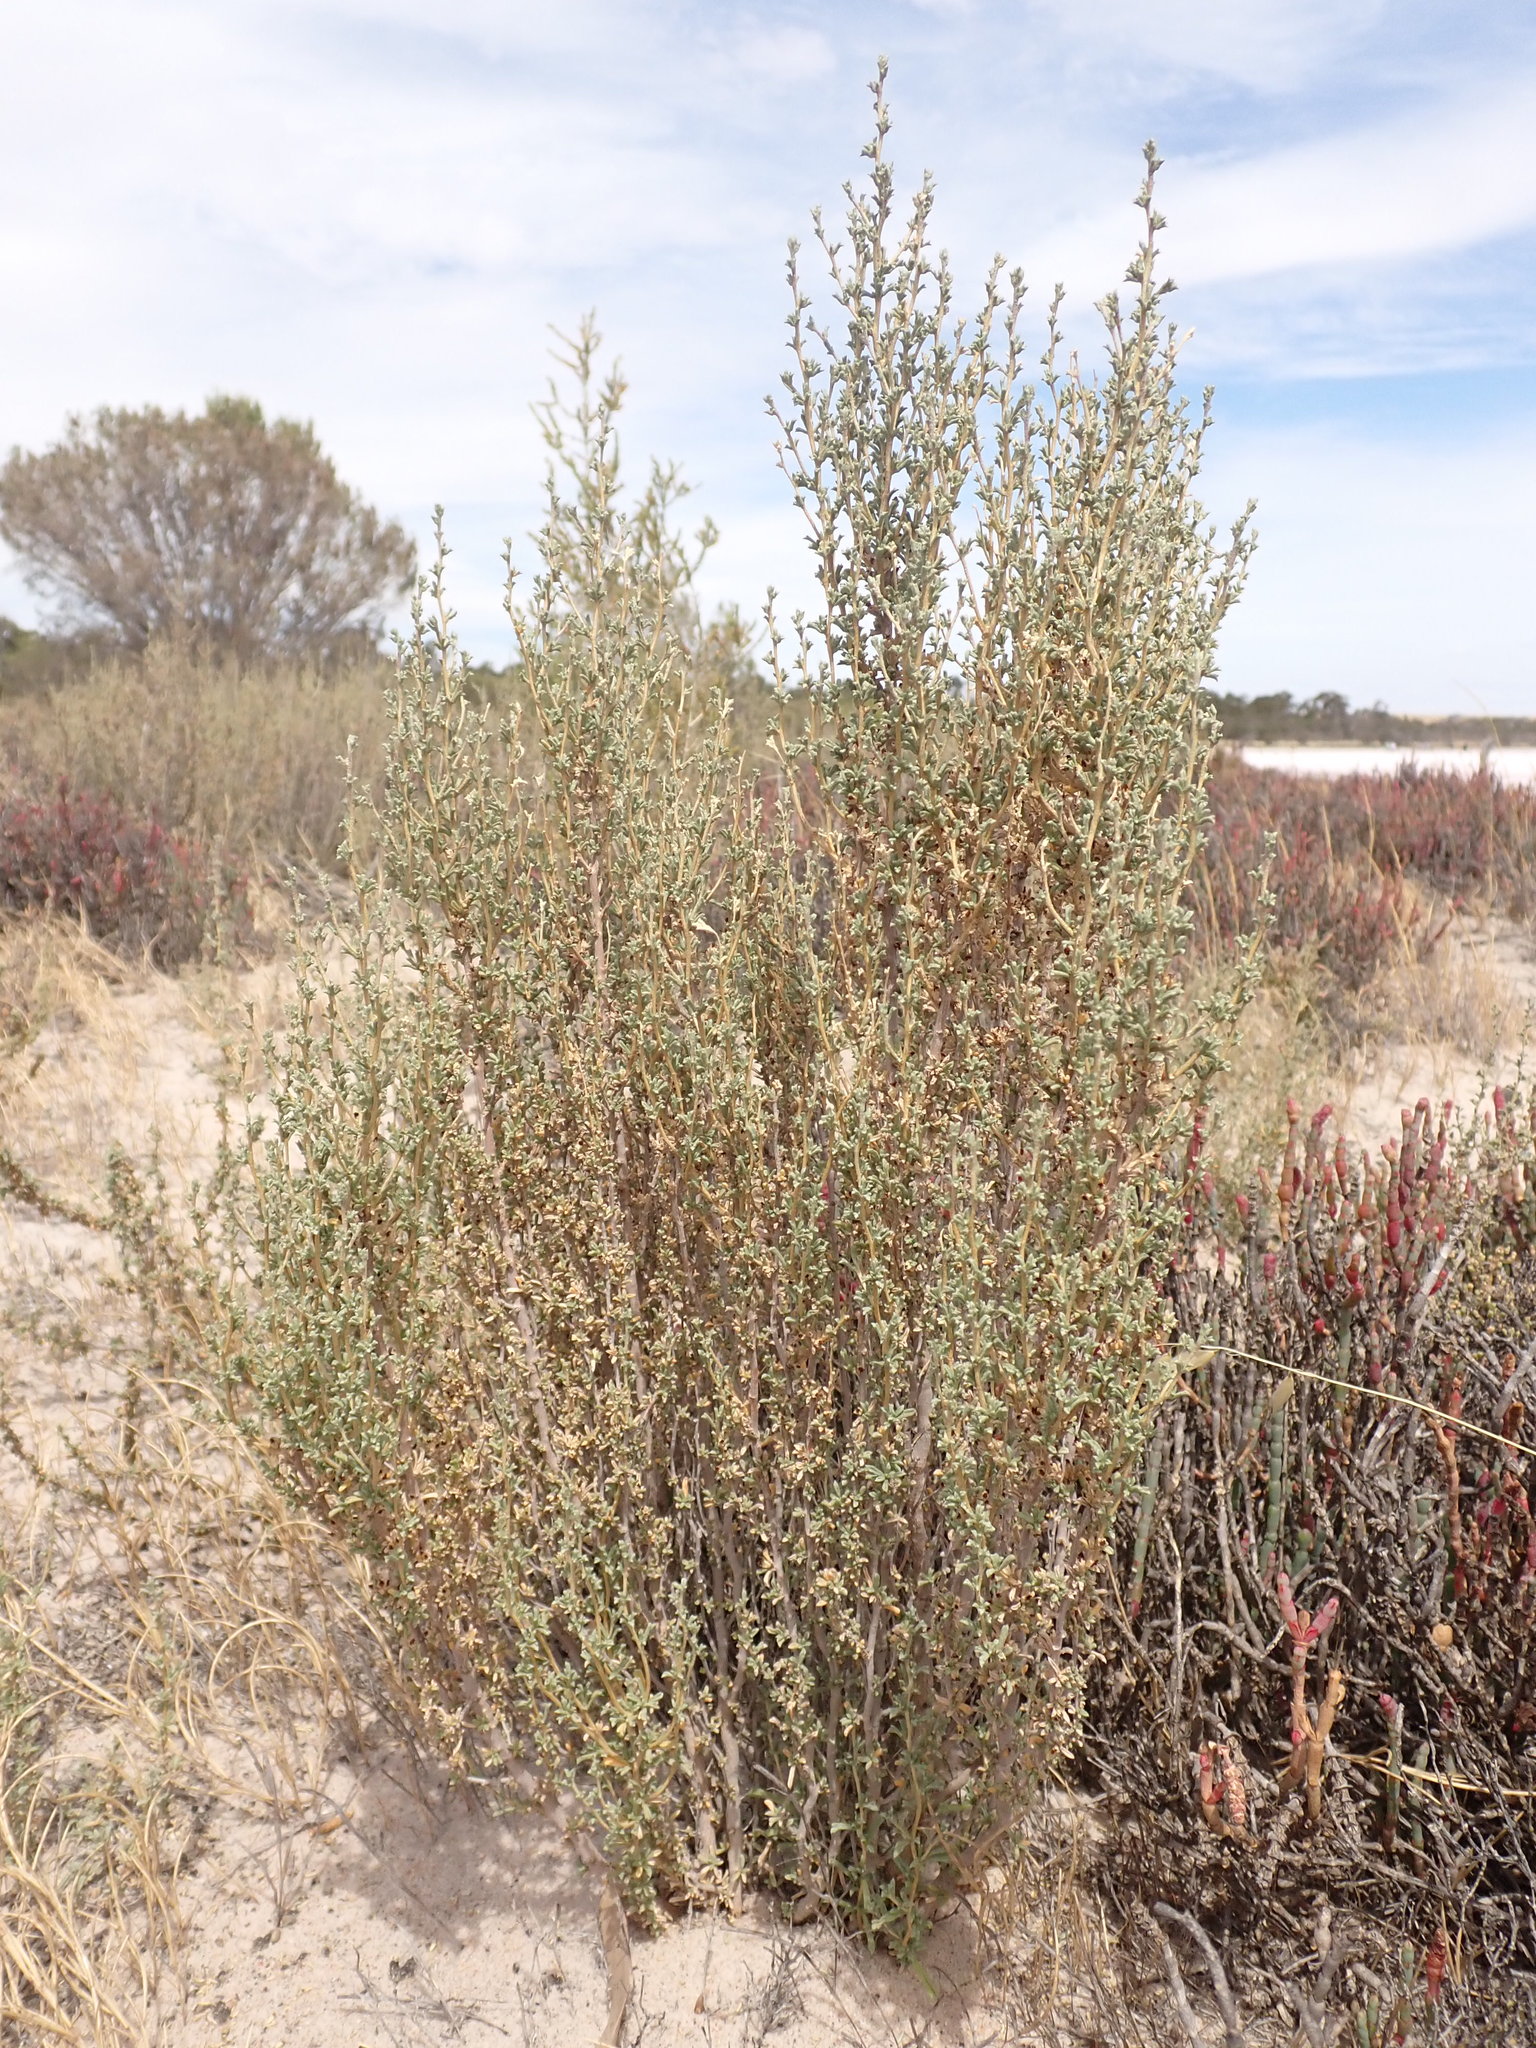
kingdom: Plantae
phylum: Tracheophyta
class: Magnoliopsida
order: Malvales
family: Malvaceae
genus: Lawrencia
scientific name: Lawrencia squamata
